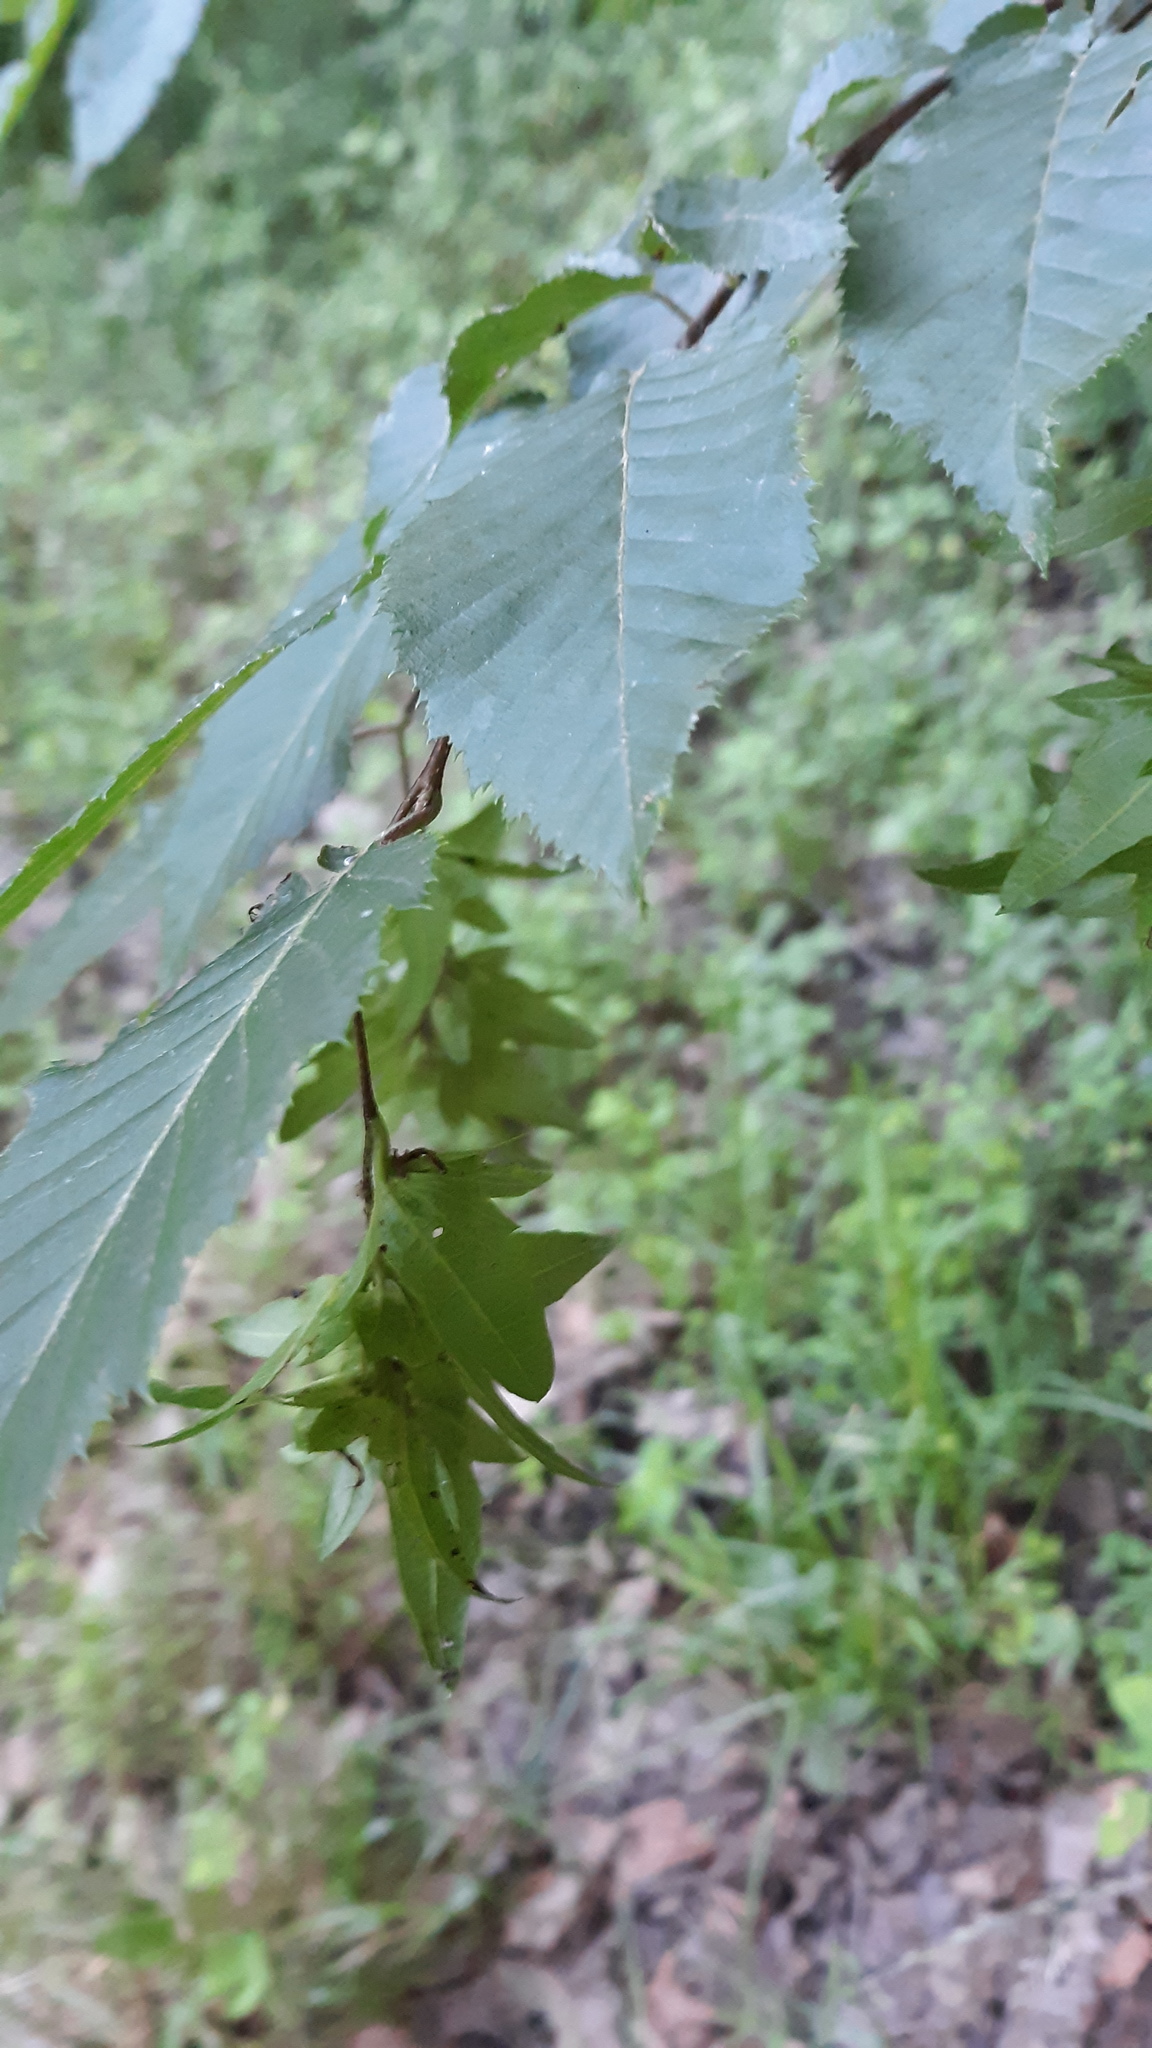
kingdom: Plantae
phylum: Tracheophyta
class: Magnoliopsida
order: Fagales
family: Betulaceae
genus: Carpinus
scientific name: Carpinus caroliniana
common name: American hornbeam
